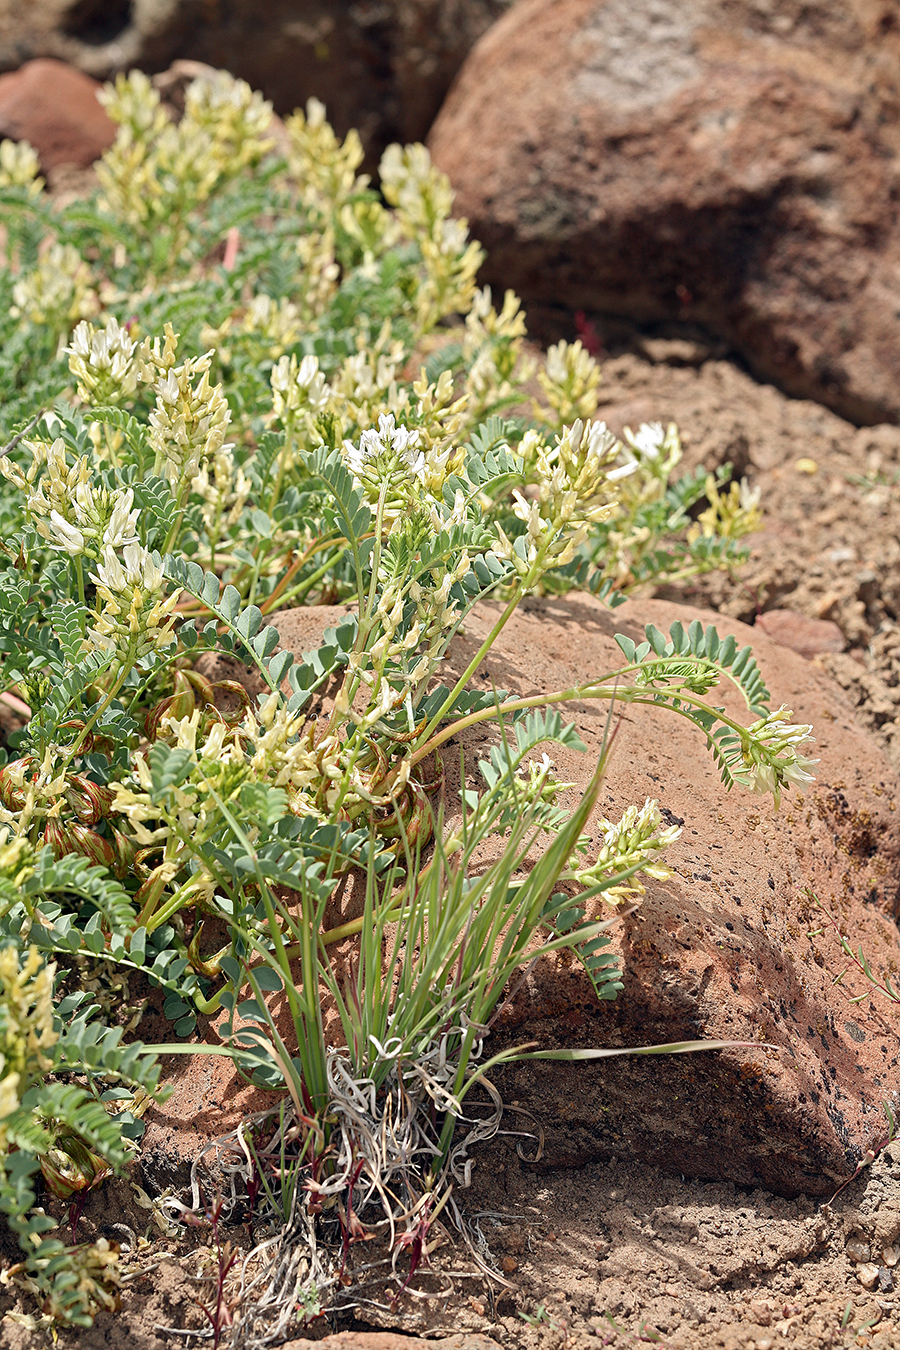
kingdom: Plantae
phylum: Tracheophyta
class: Magnoliopsida
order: Fabales
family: Fabaceae
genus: Astragalus
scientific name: Astragalus curvicarpus
